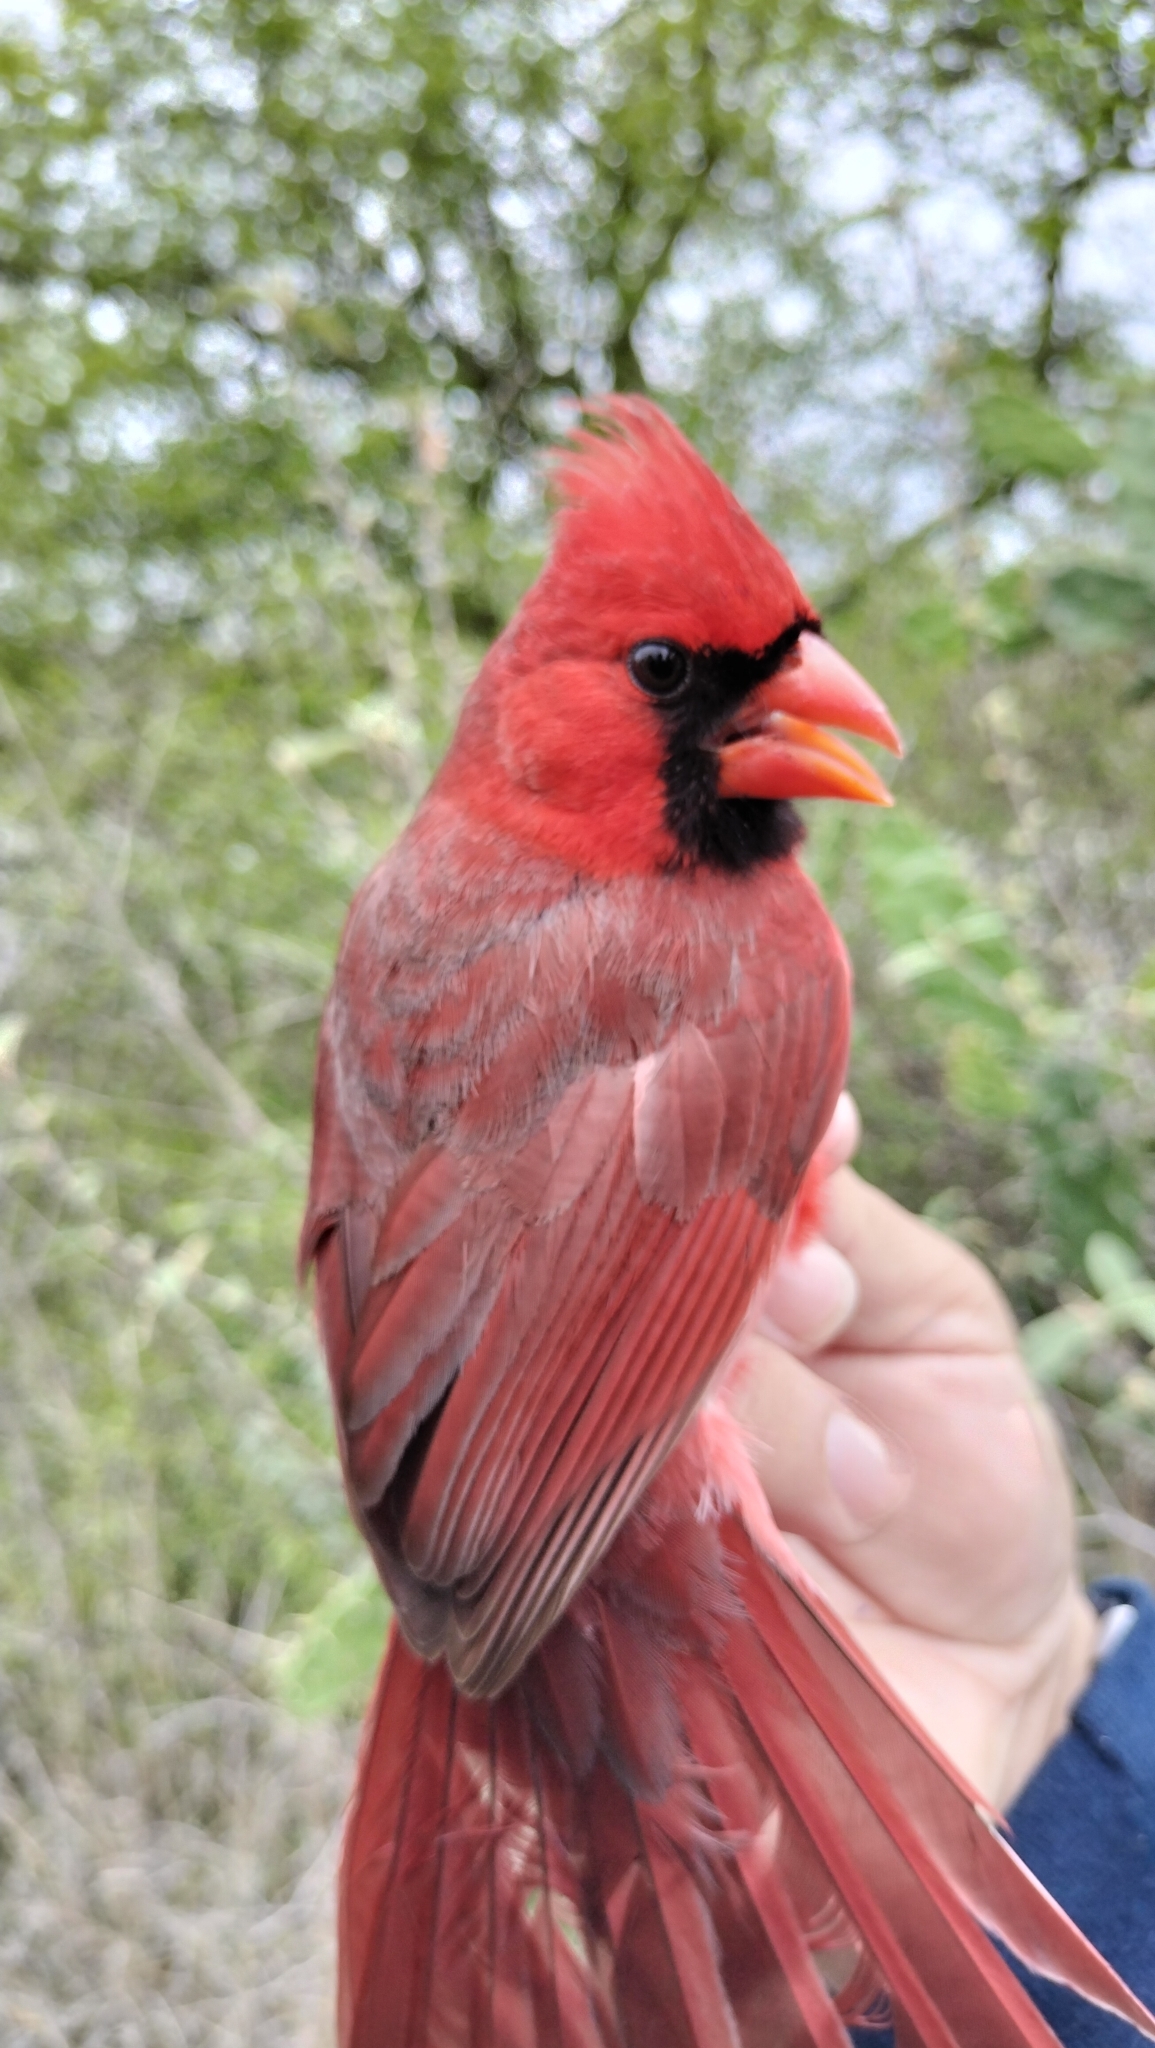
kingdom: Animalia
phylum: Chordata
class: Aves
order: Passeriformes
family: Cardinalidae
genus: Cardinalis
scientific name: Cardinalis cardinalis
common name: Northern cardinal
